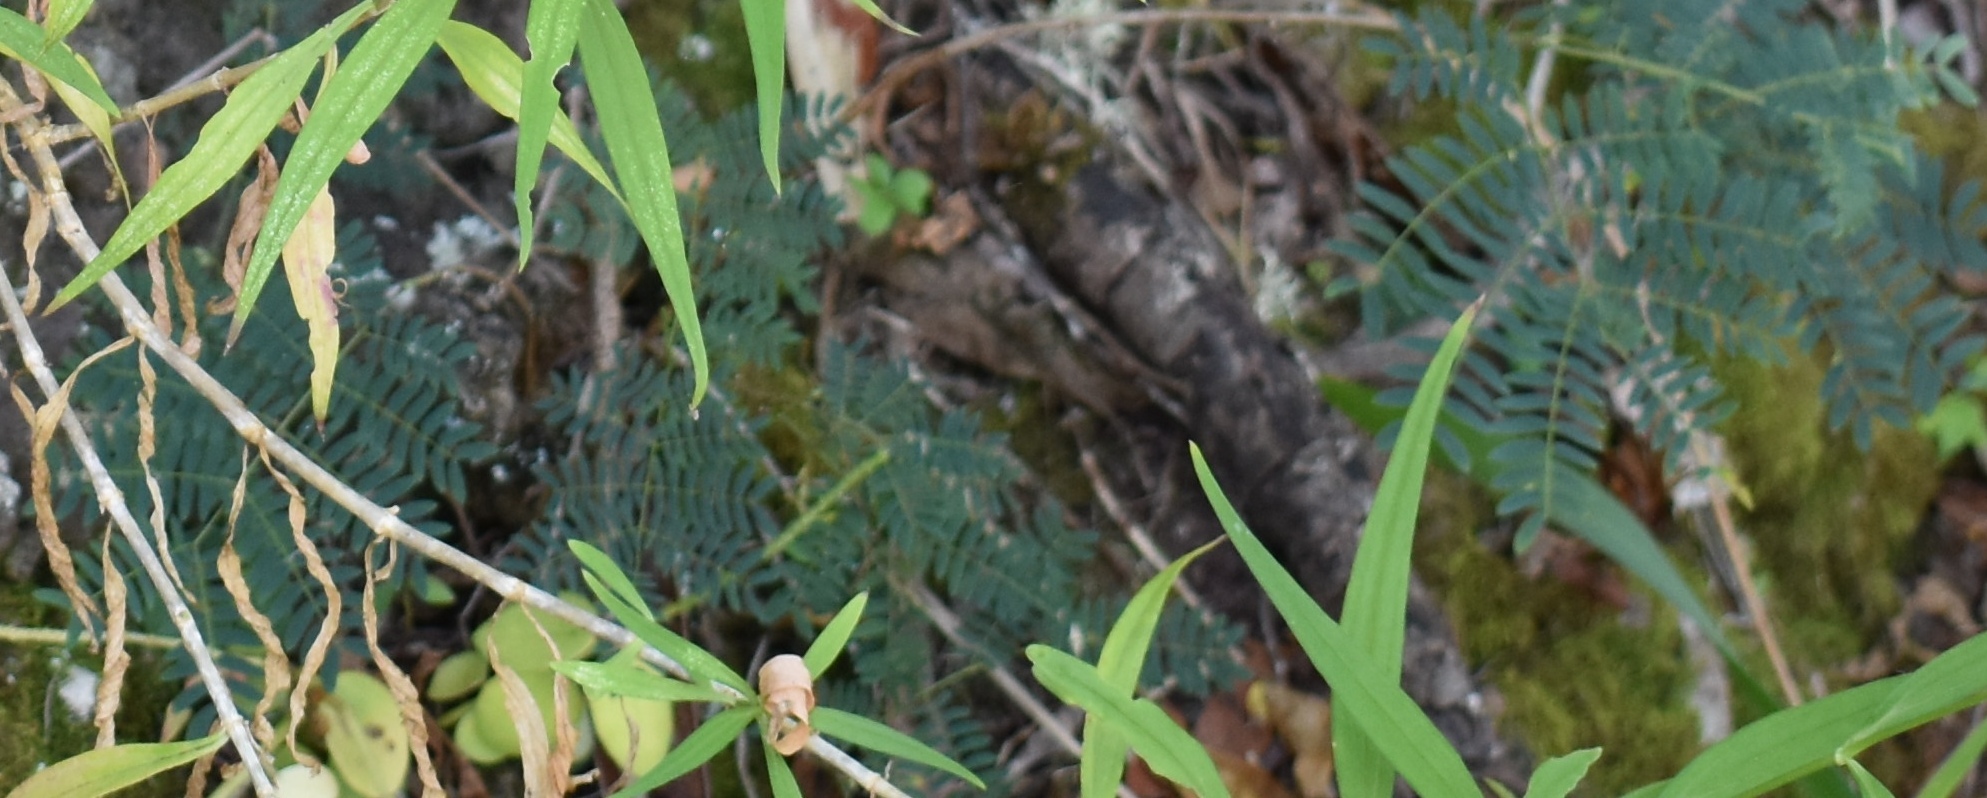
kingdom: Plantae
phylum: Tracheophyta
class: Magnoliopsida
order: Fabales
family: Fabaceae
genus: Leucaena
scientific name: Leucaena leucocephala
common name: White leadtree
